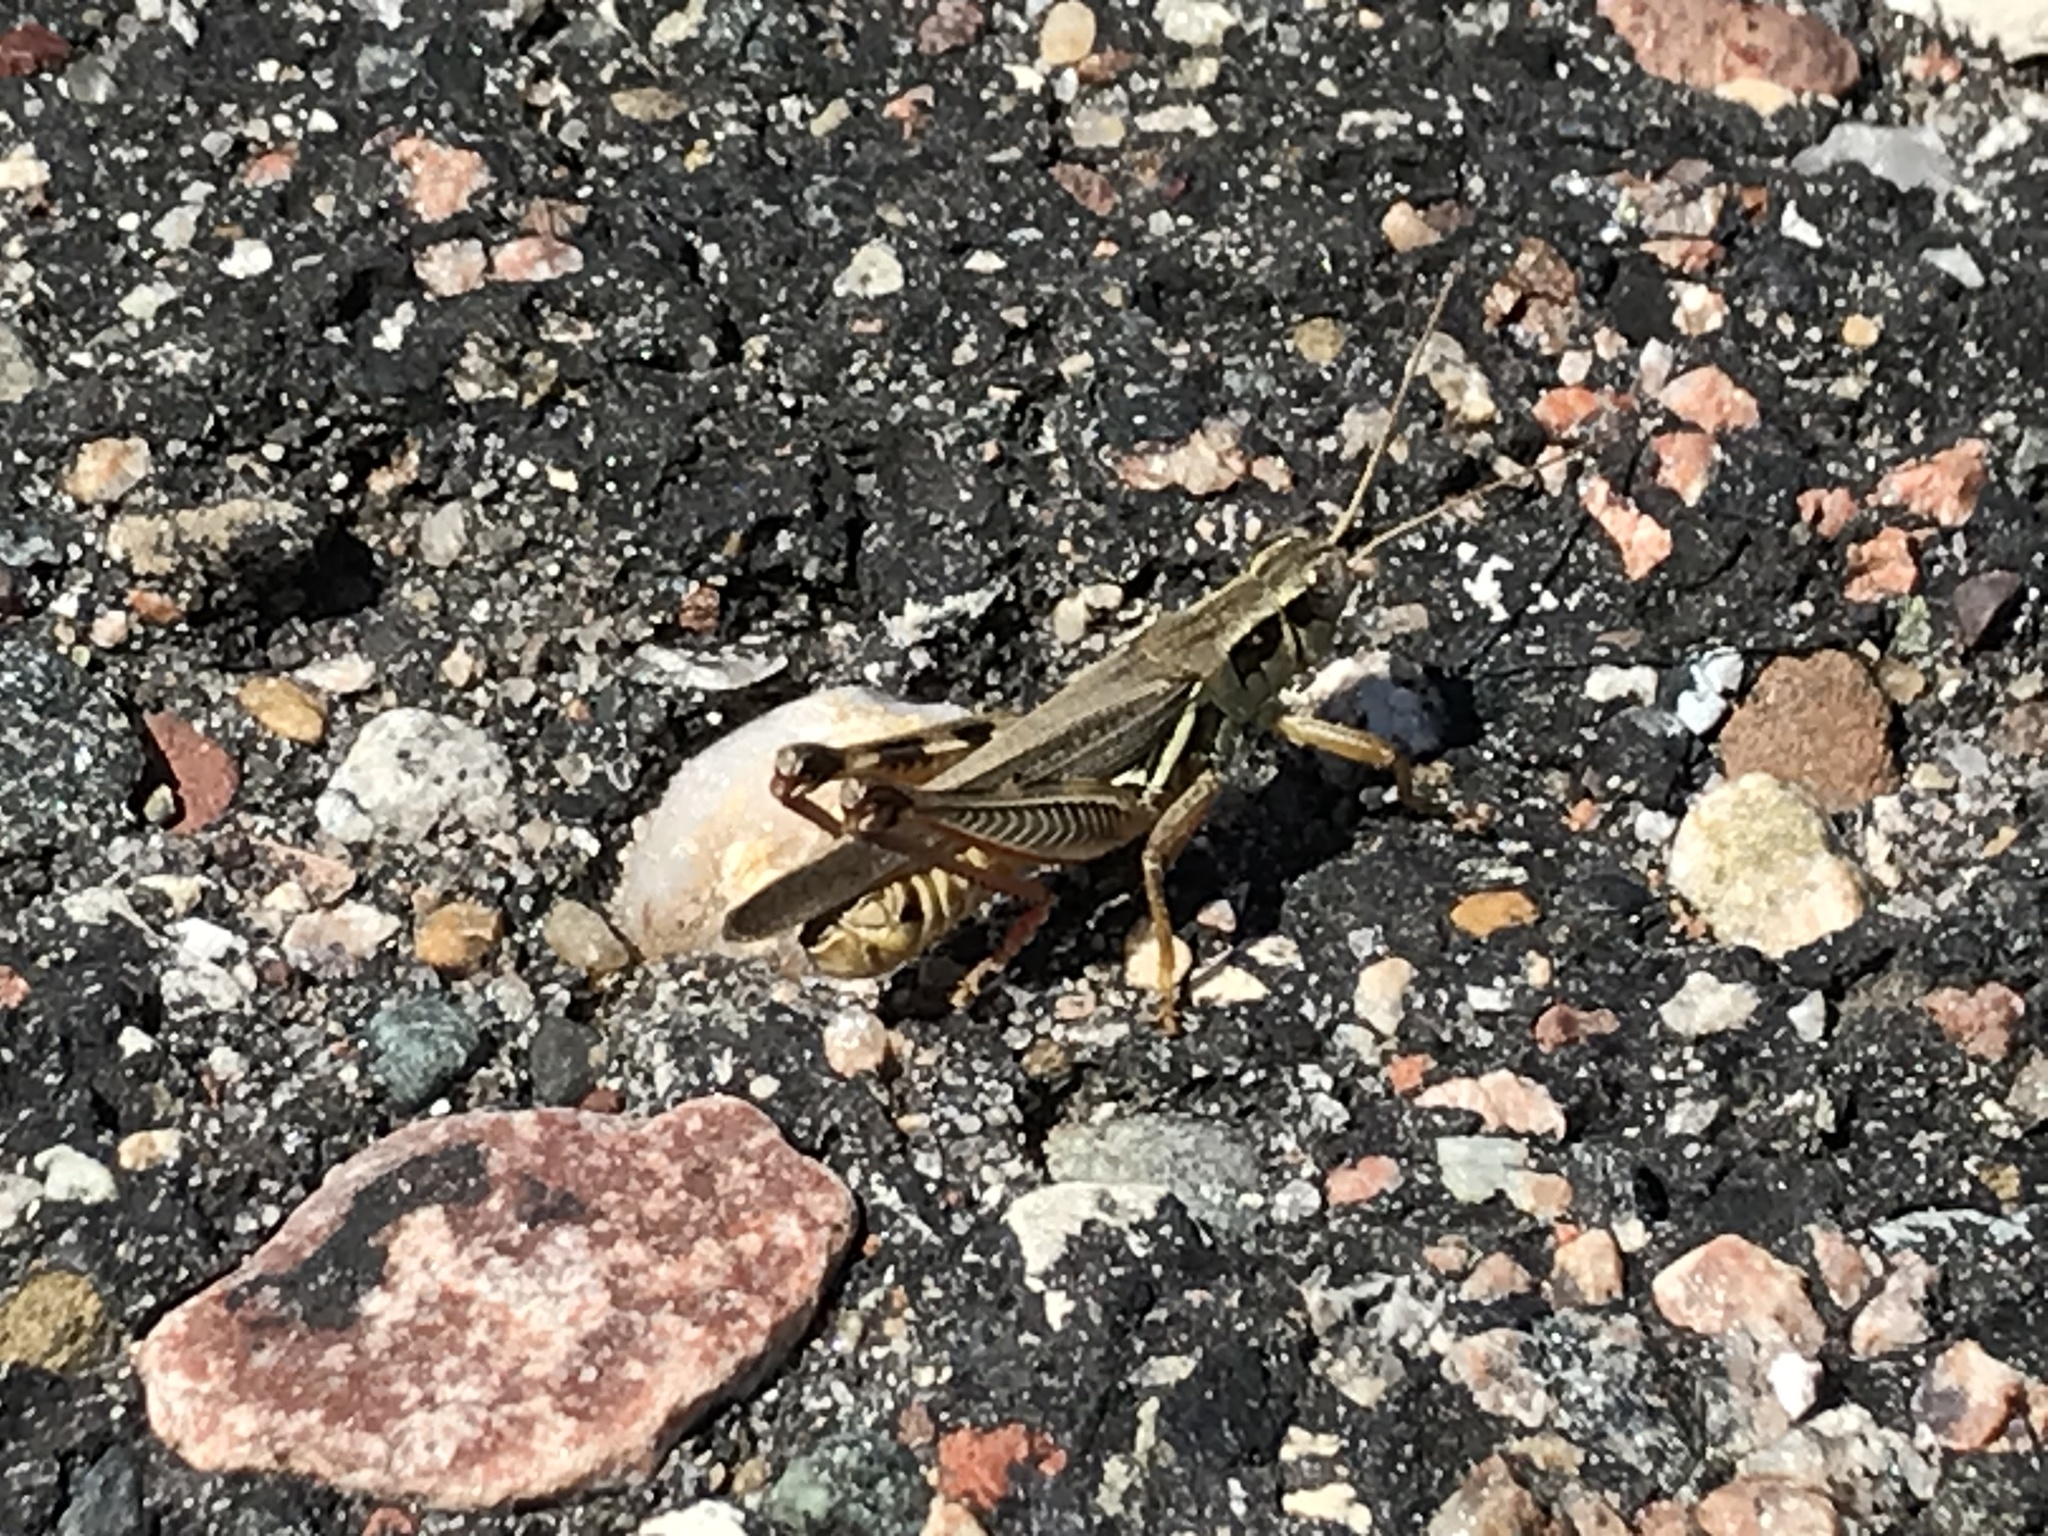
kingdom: Animalia
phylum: Arthropoda
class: Insecta
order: Orthoptera
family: Acrididae
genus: Melanoplus
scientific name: Melanoplus femurrubrum
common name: Red-legged grasshopper
